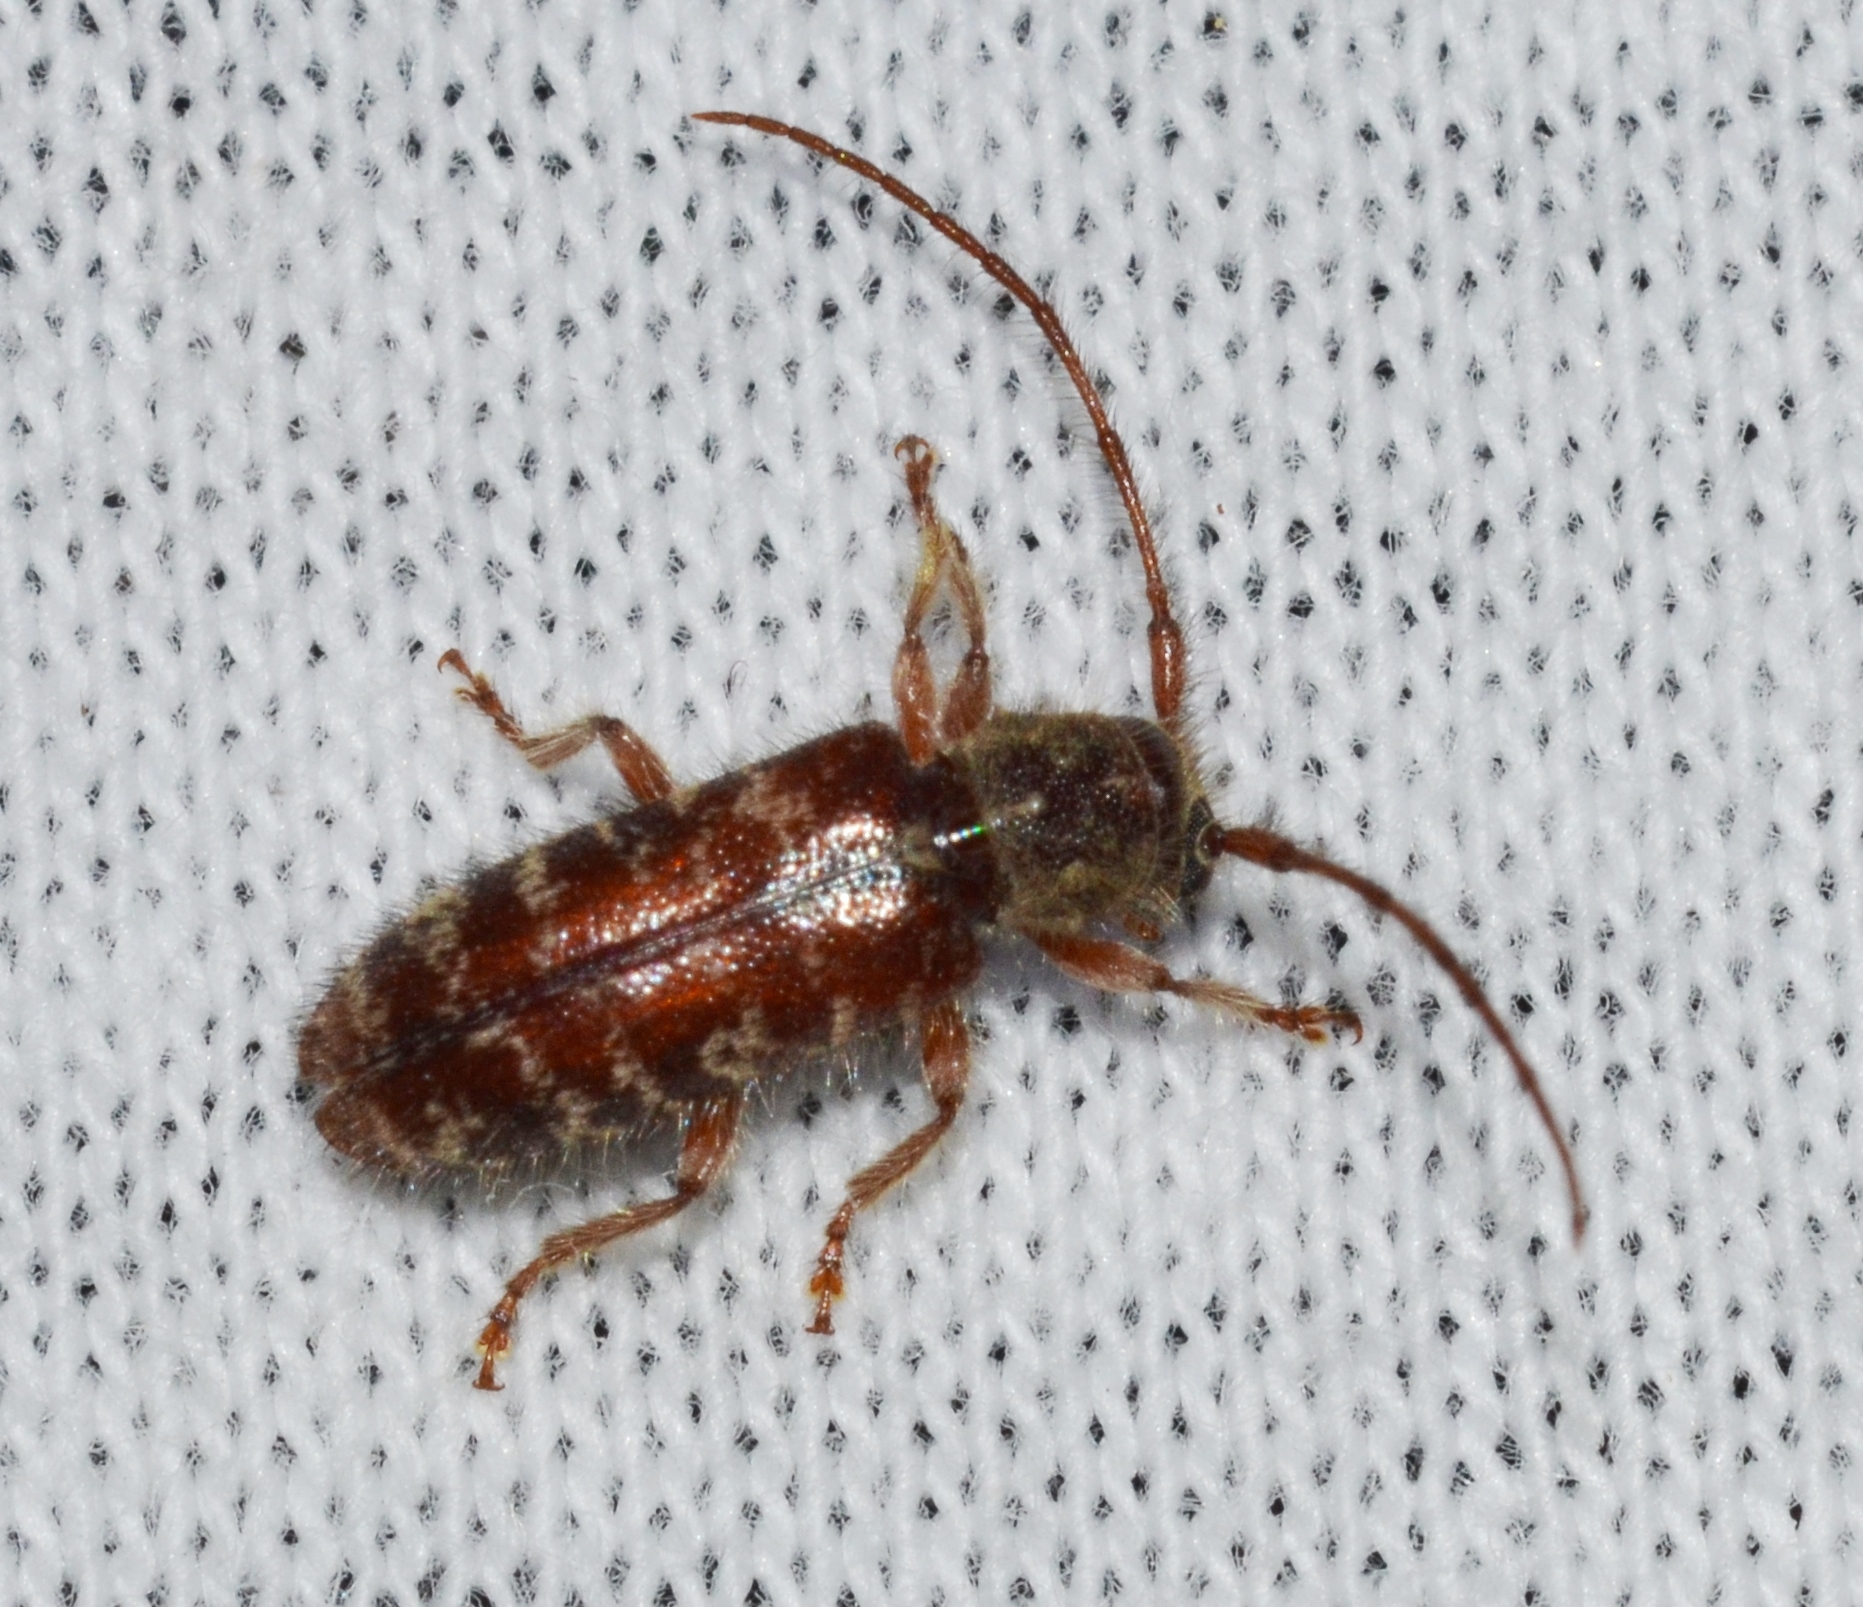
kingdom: Animalia
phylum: Arthropoda
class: Insecta
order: Coleoptera
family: Cerambycidae
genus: Eupogonius
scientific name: Eupogonius tomentosus
